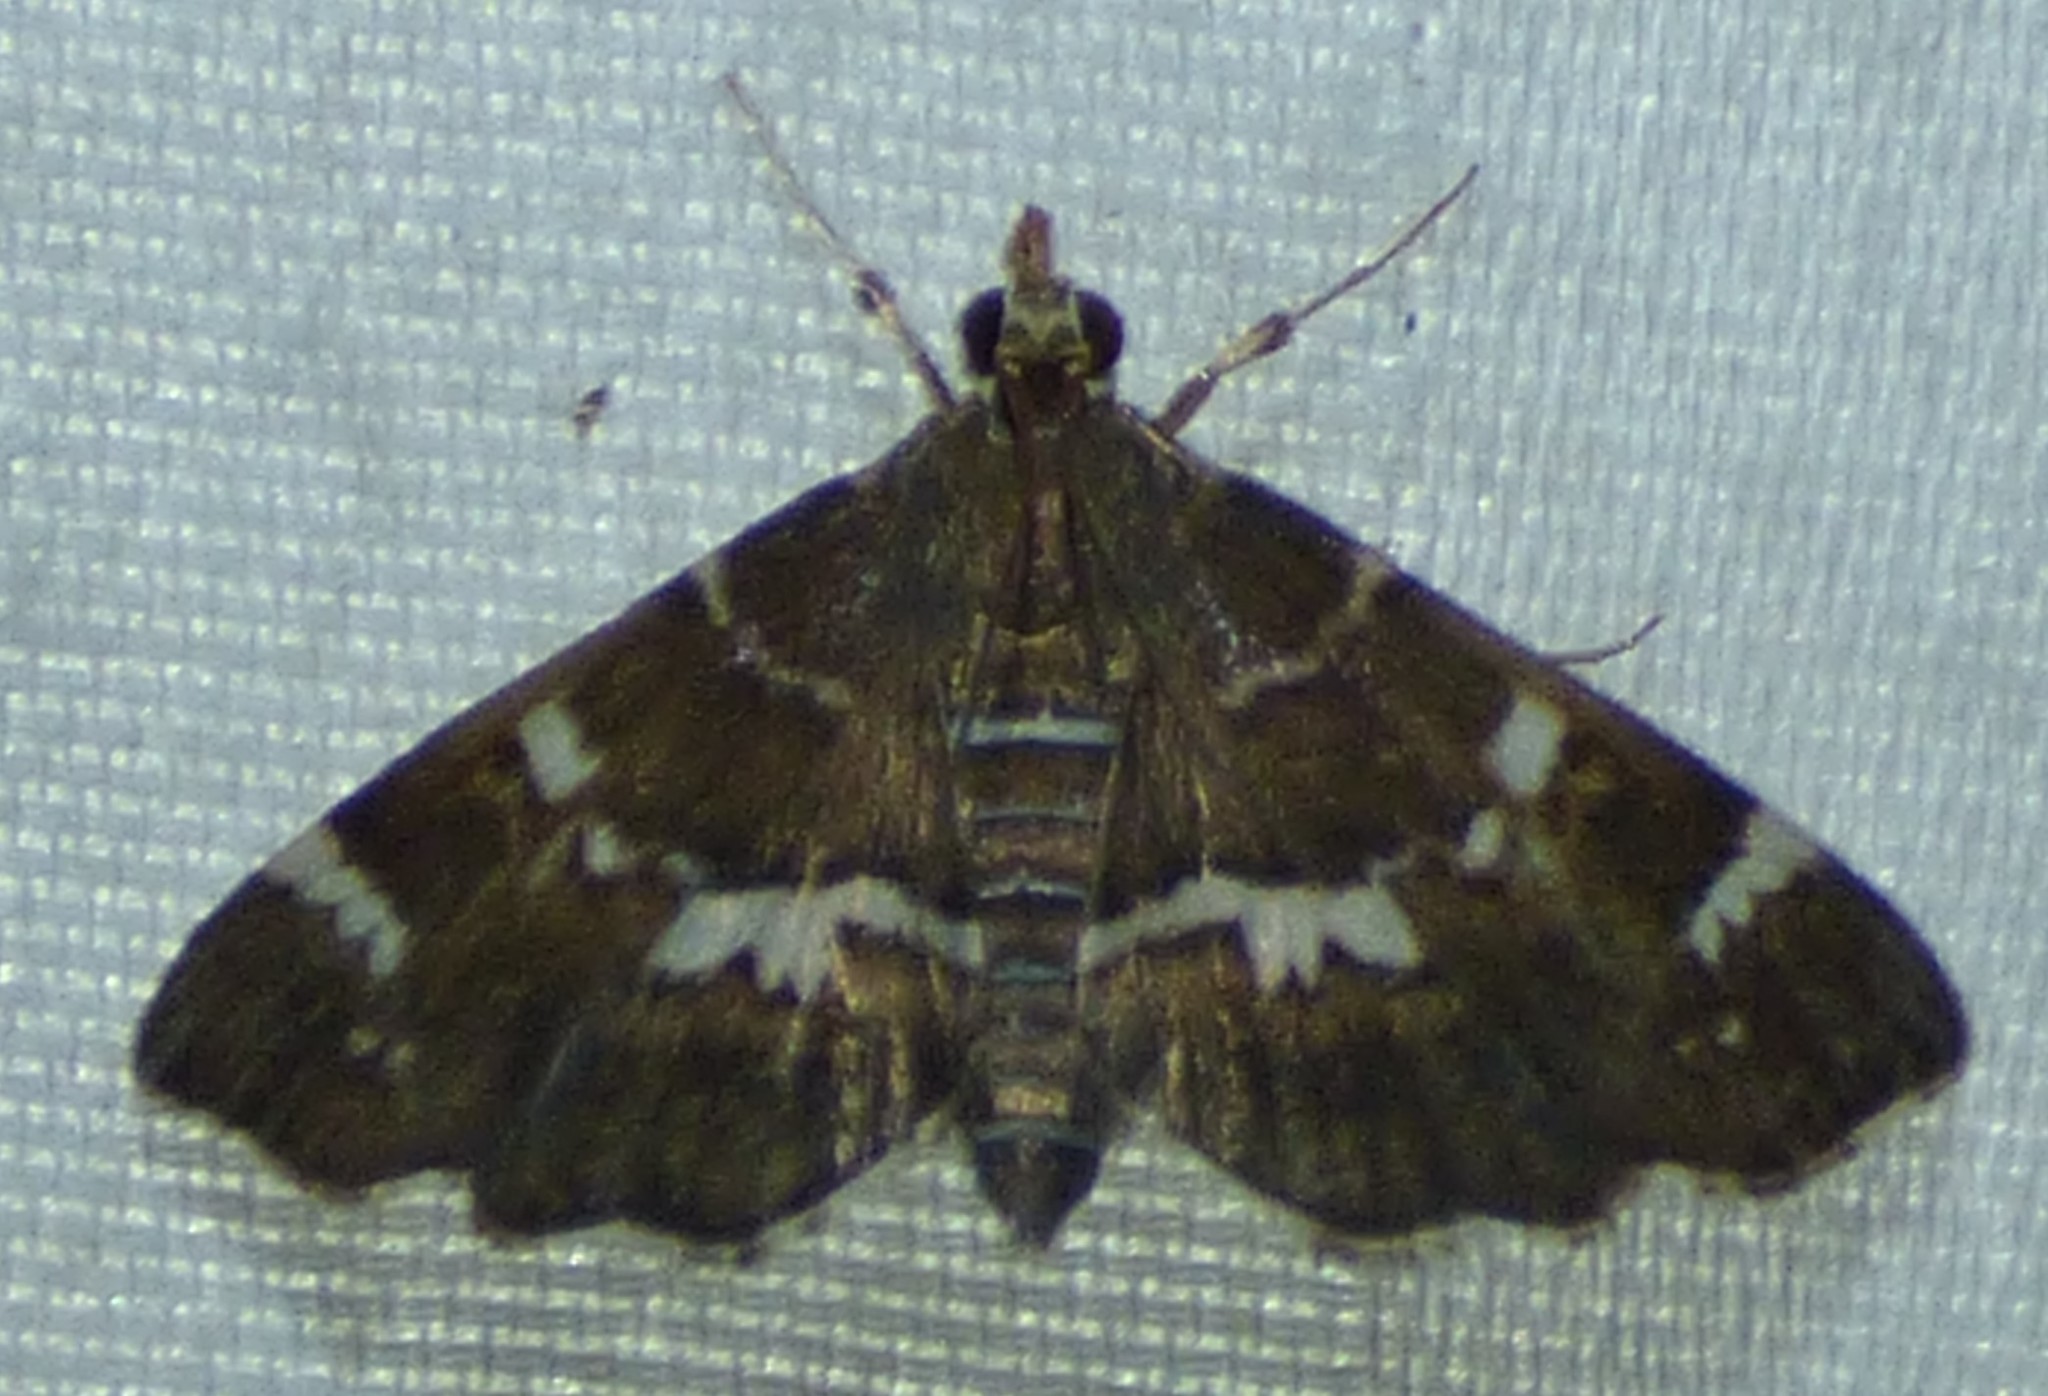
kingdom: Animalia
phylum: Arthropoda
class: Insecta
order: Lepidoptera
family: Crambidae
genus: Hymenia
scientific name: Hymenia perspectalis
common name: Spotted beet webworm
